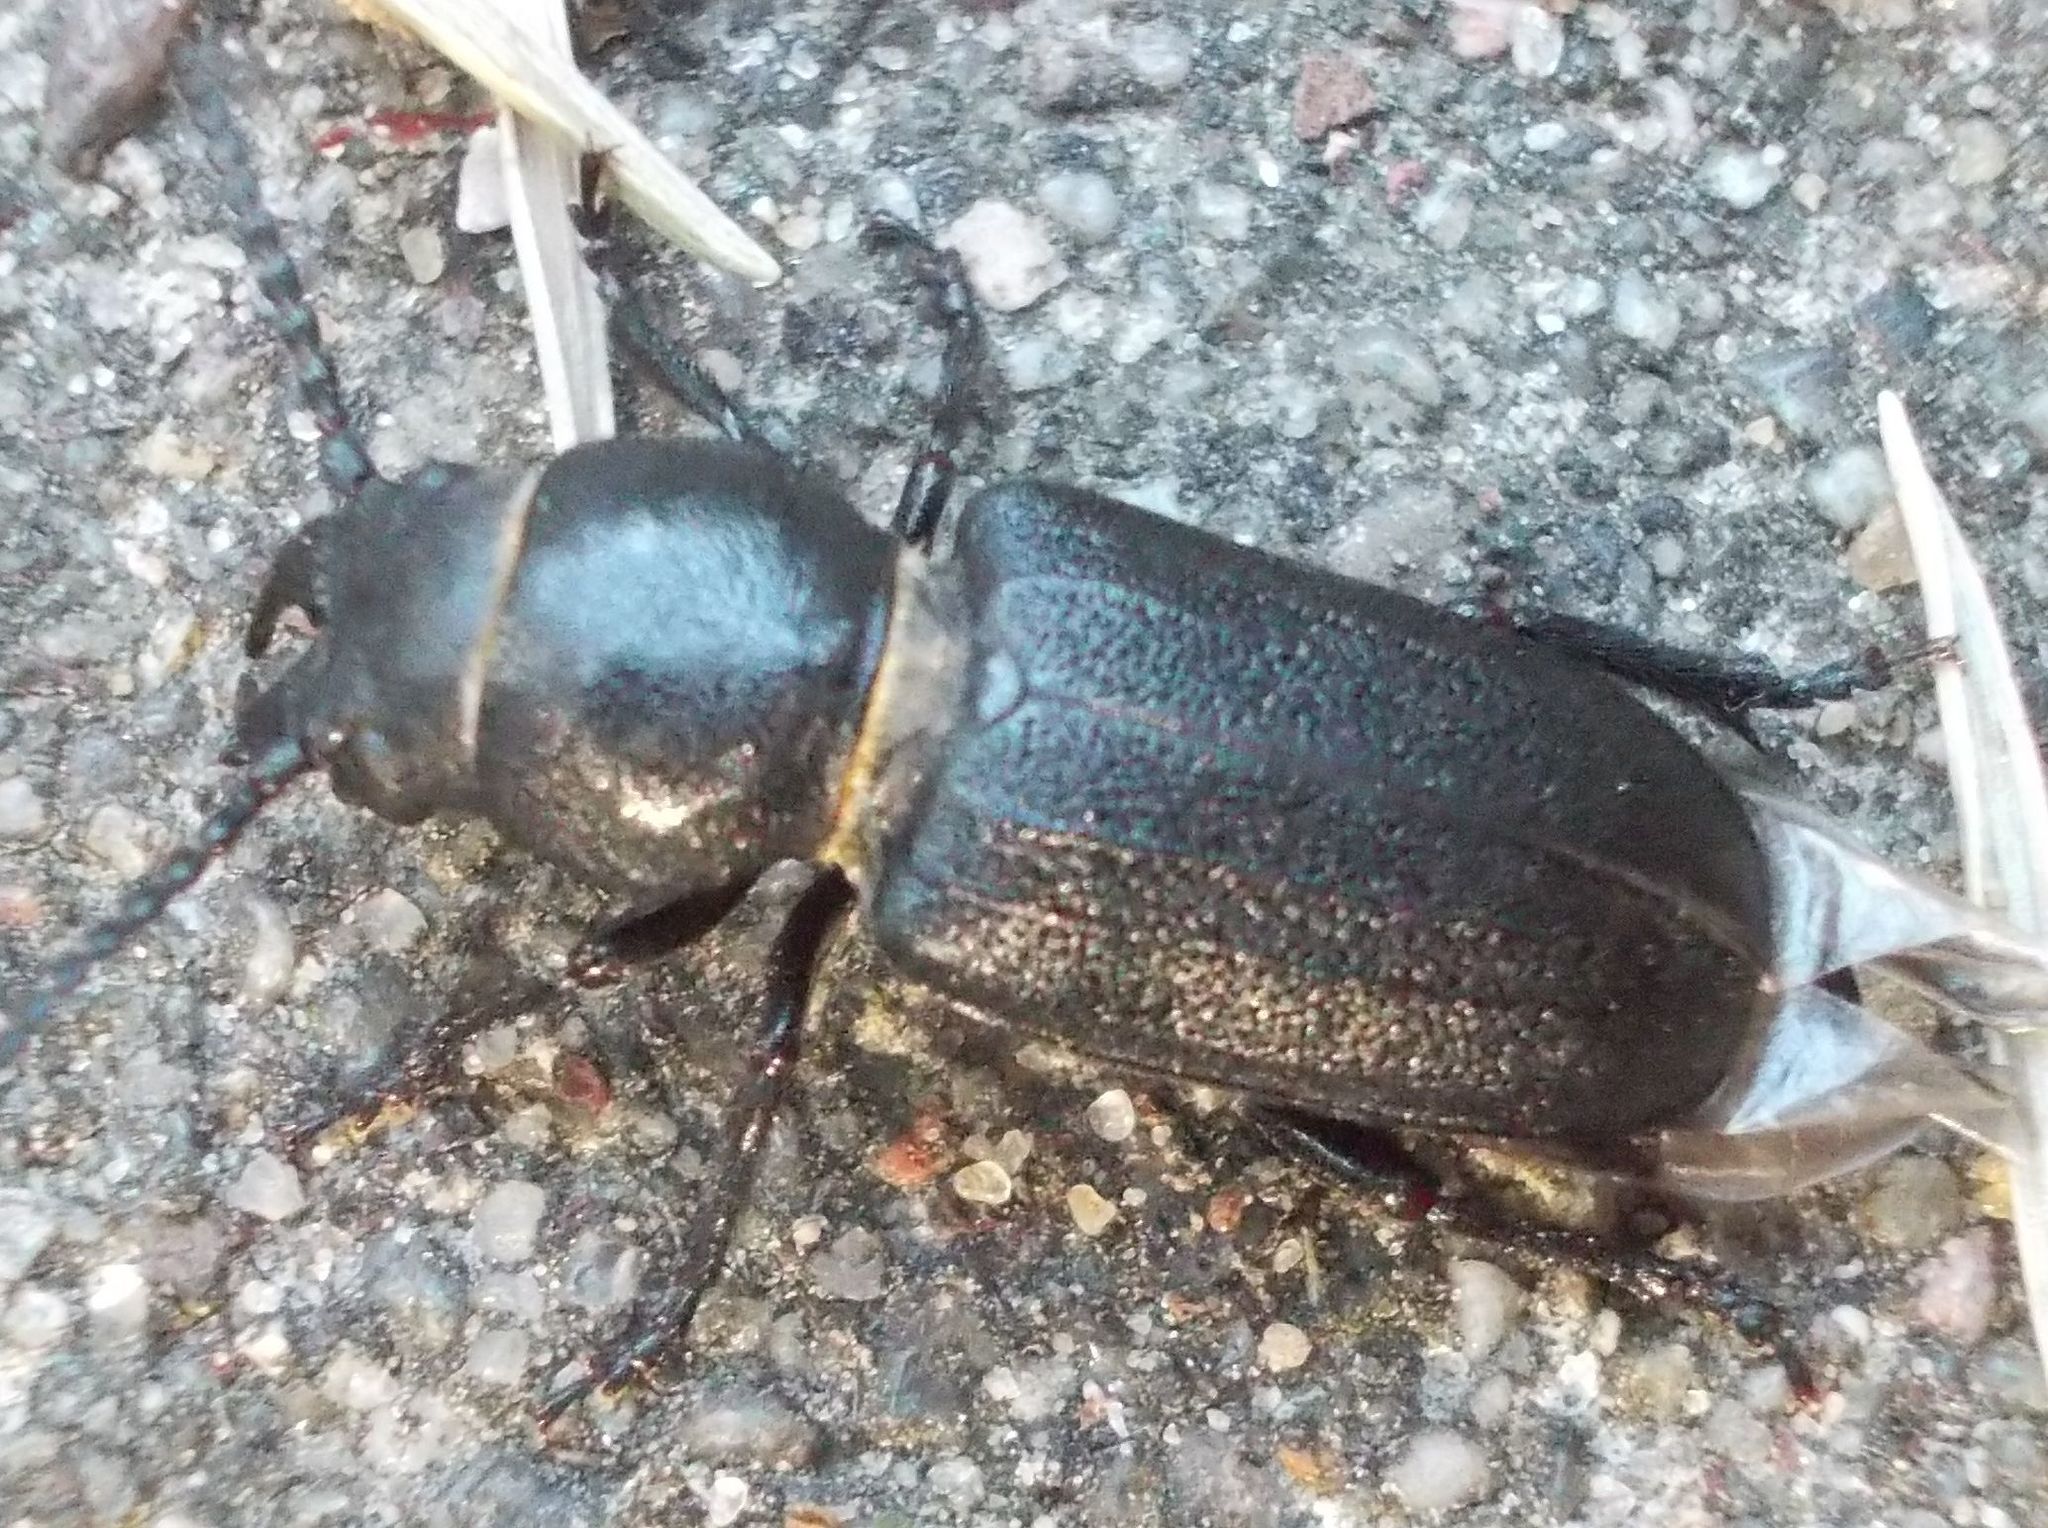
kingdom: Animalia
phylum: Arthropoda
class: Insecta
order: Coleoptera
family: Cerambycidae
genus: Spondylis
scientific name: Spondylis buprestoides
